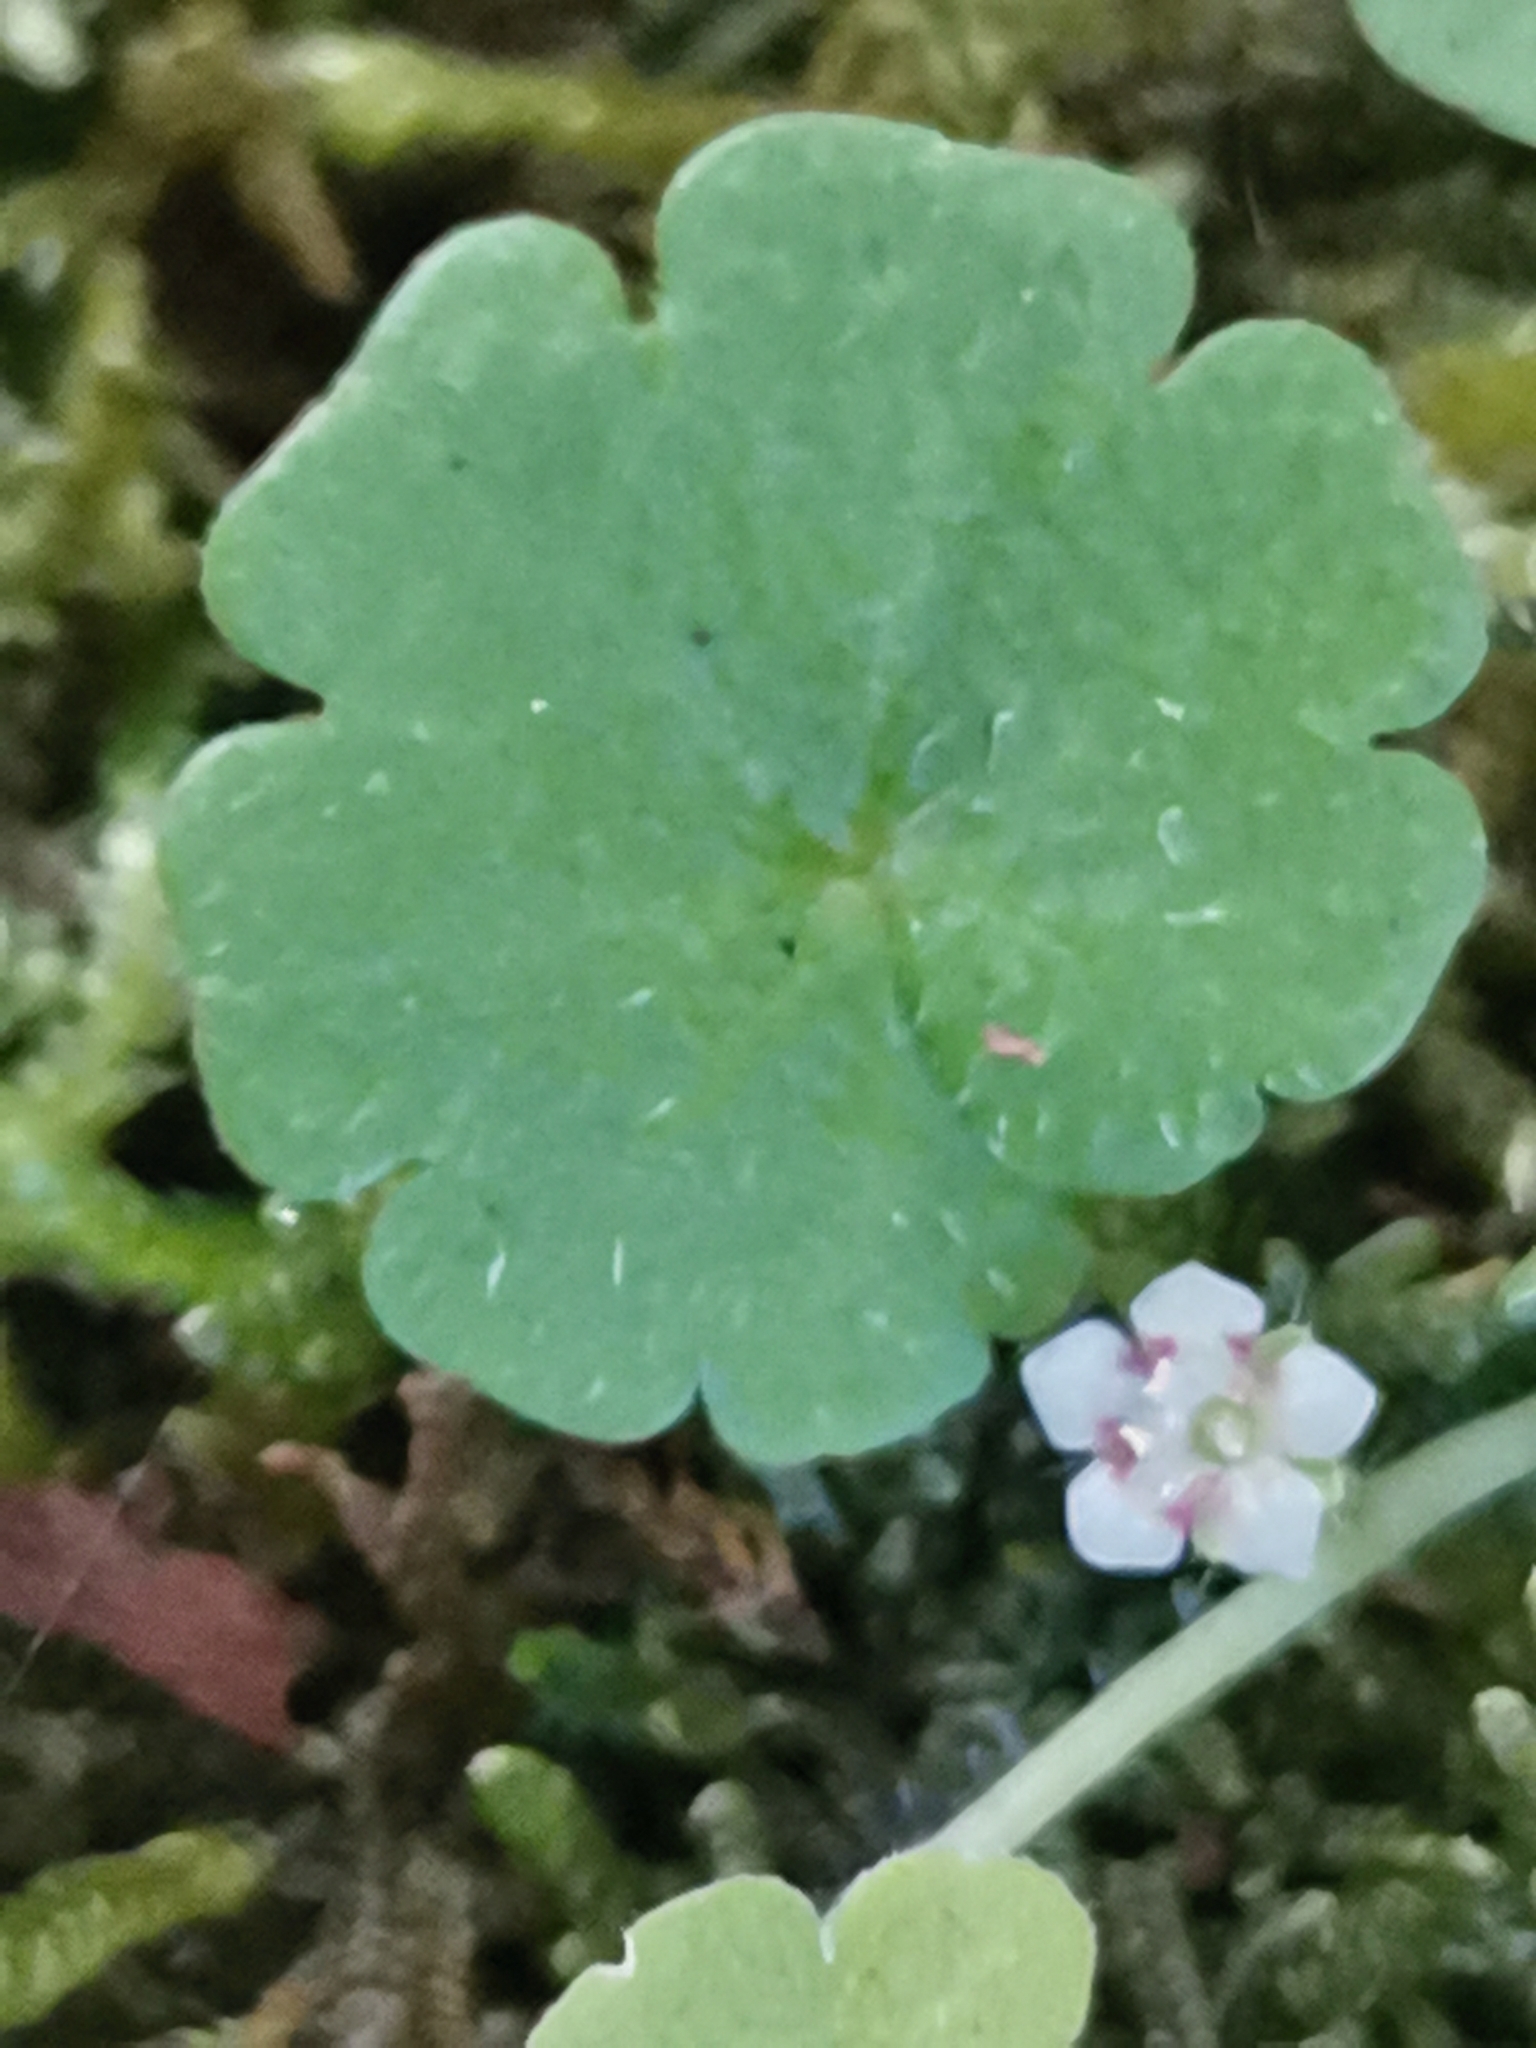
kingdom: Plantae
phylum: Tracheophyta
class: Magnoliopsida
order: Lamiales
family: Plantaginaceae
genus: Sibthorpia
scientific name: Sibthorpia europaea
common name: Cornish moneywort
